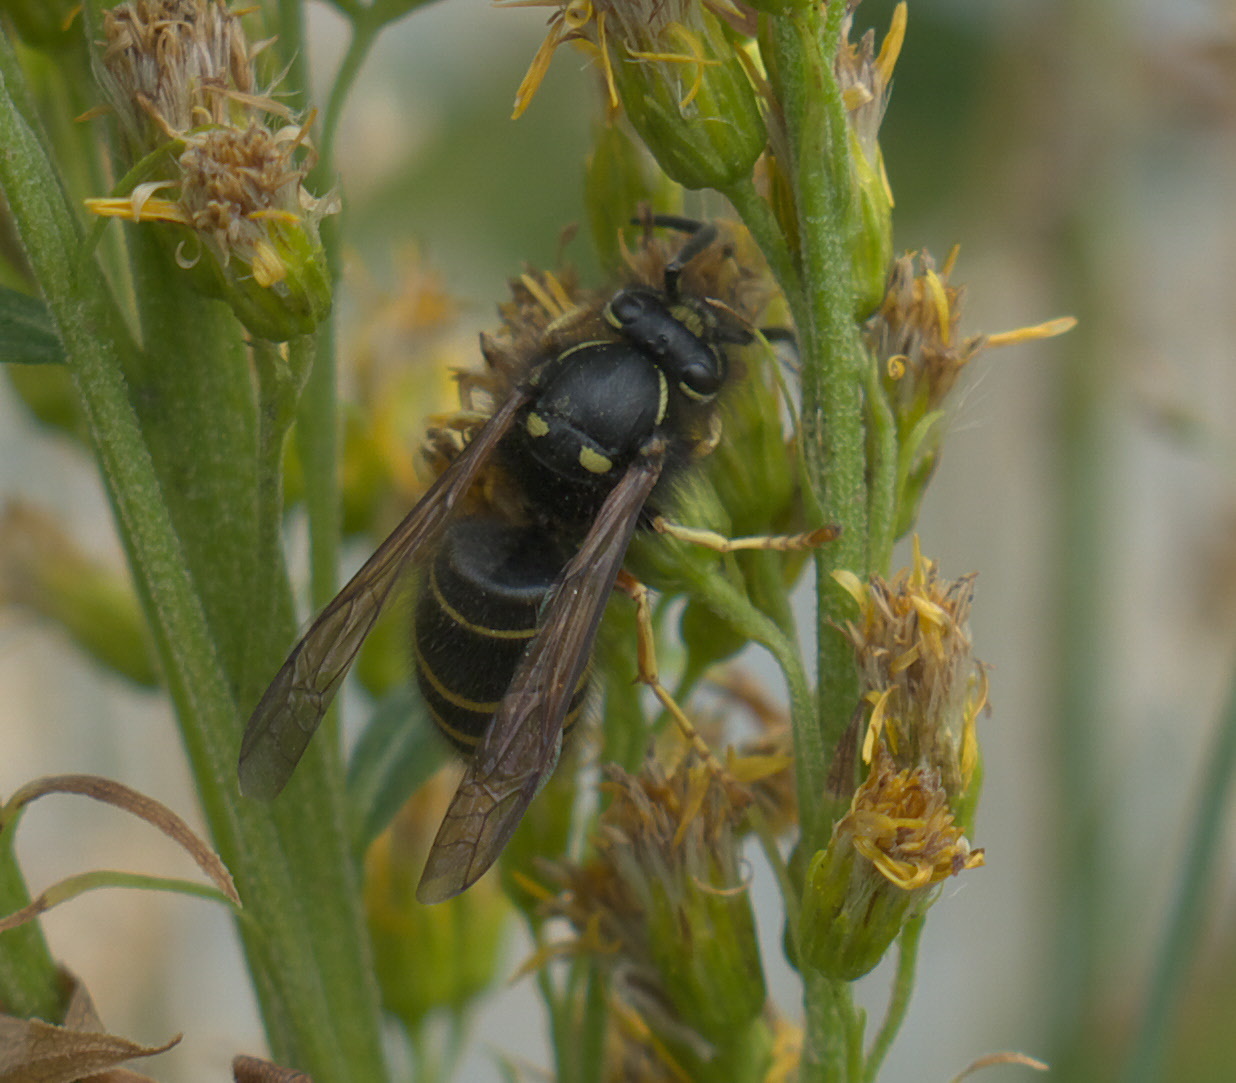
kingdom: Animalia
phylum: Arthropoda
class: Insecta
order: Hymenoptera
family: Vespidae
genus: Dolichovespula
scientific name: Dolichovespula
